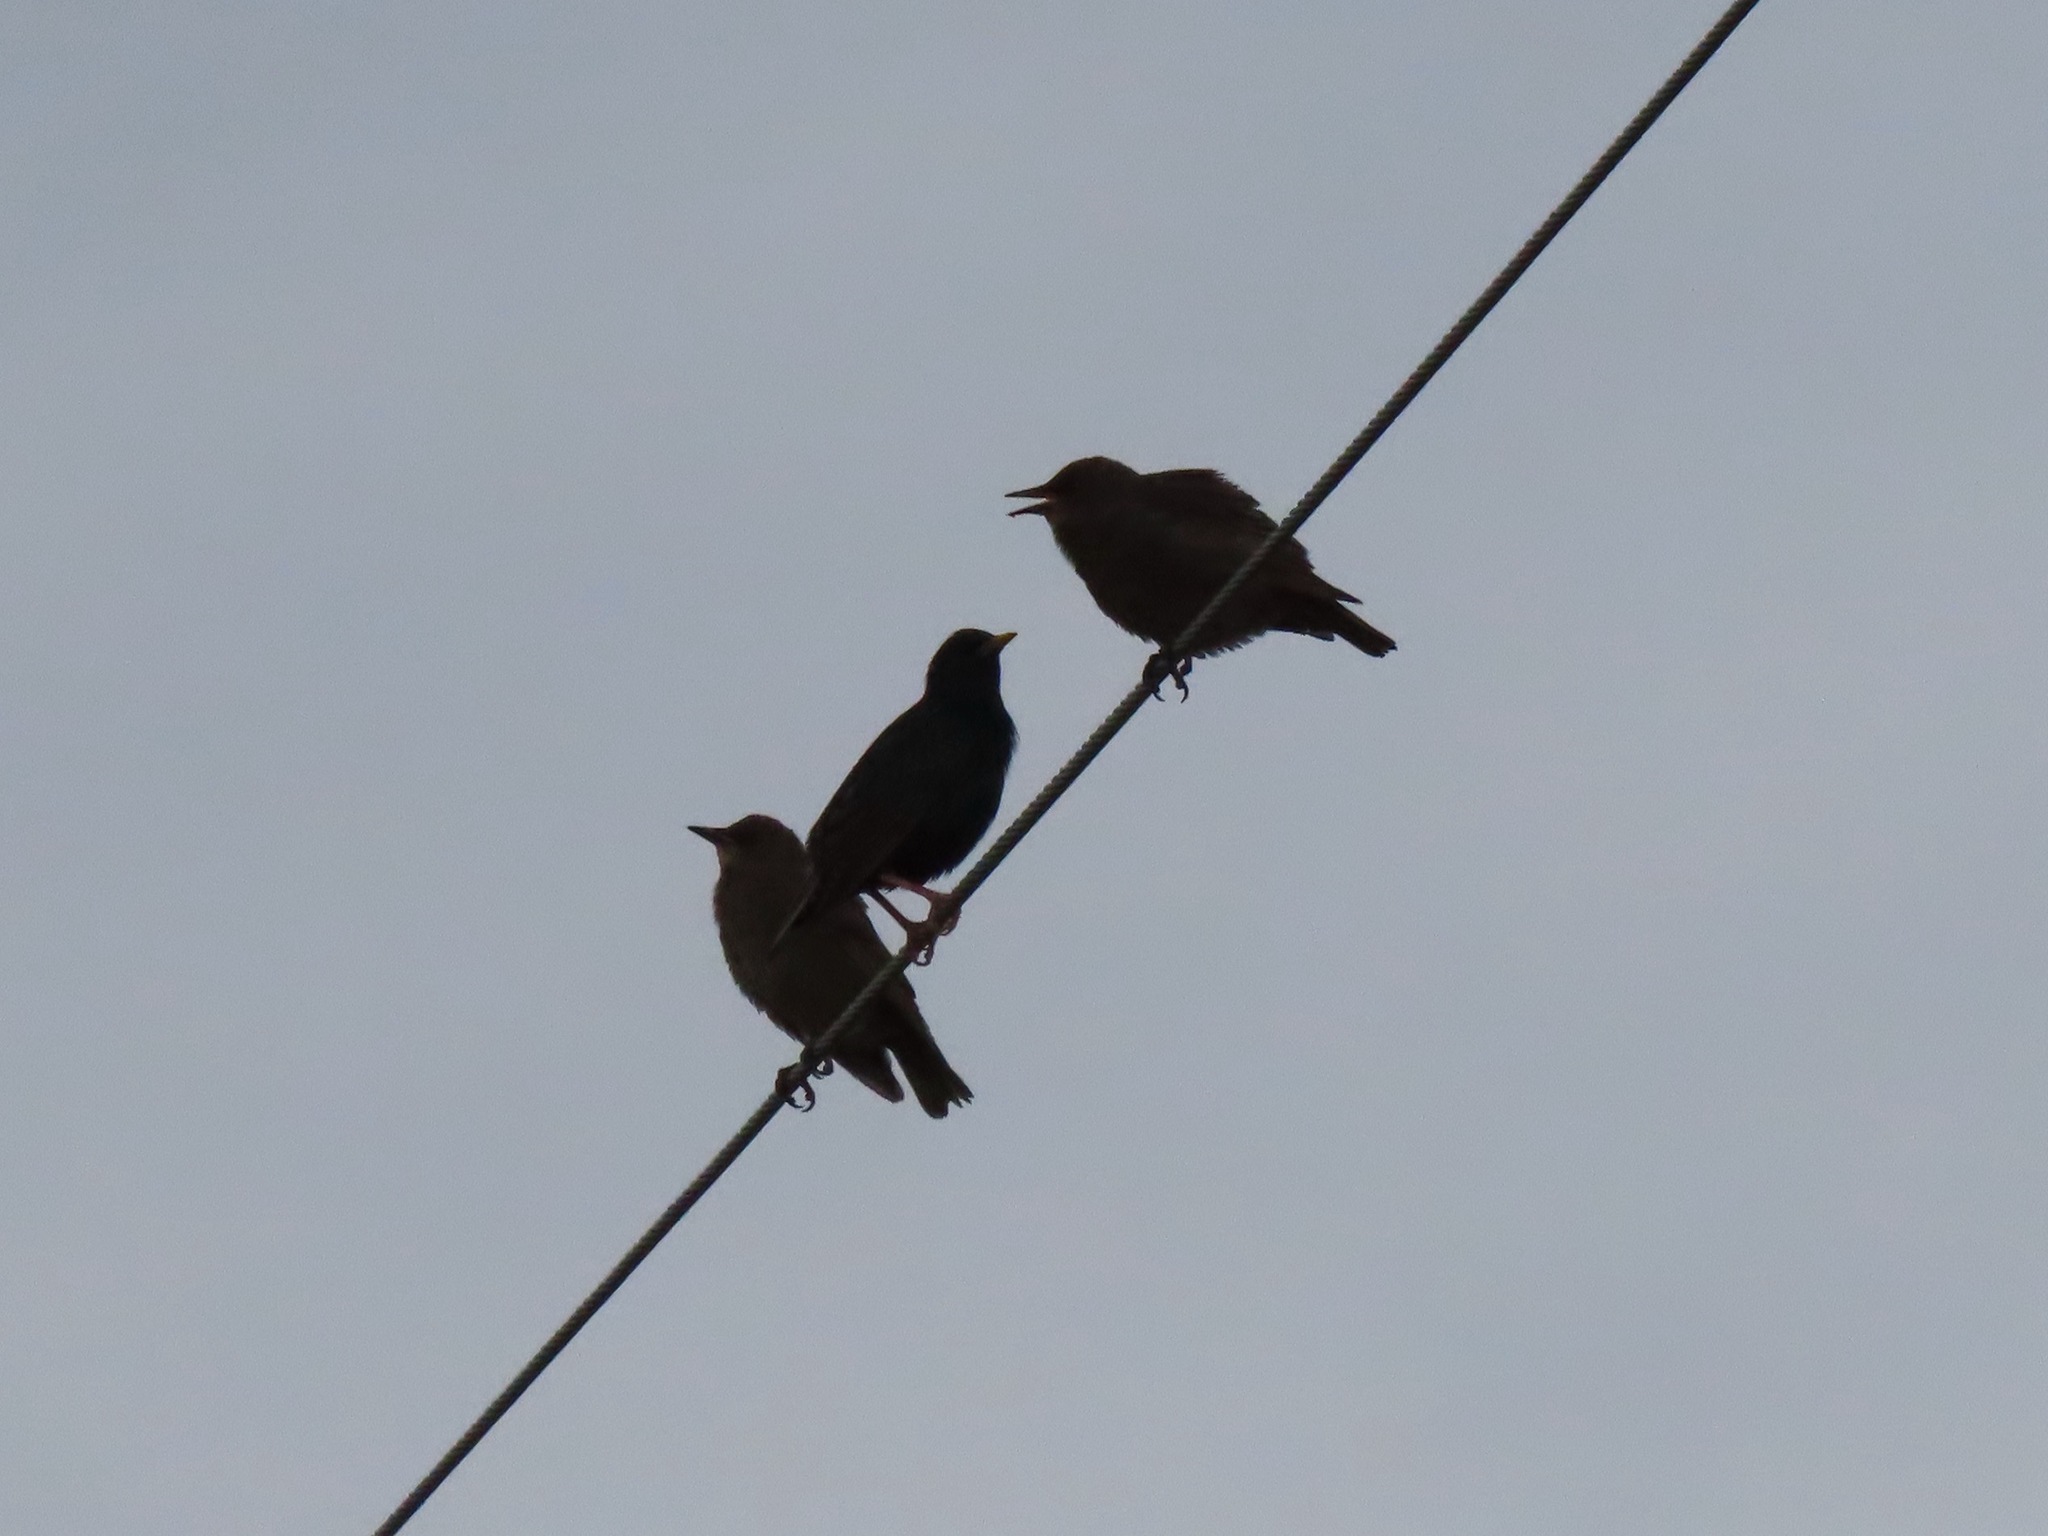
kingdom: Animalia
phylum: Chordata
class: Aves
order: Passeriformes
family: Sturnidae
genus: Sturnus
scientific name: Sturnus vulgaris
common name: Common starling
